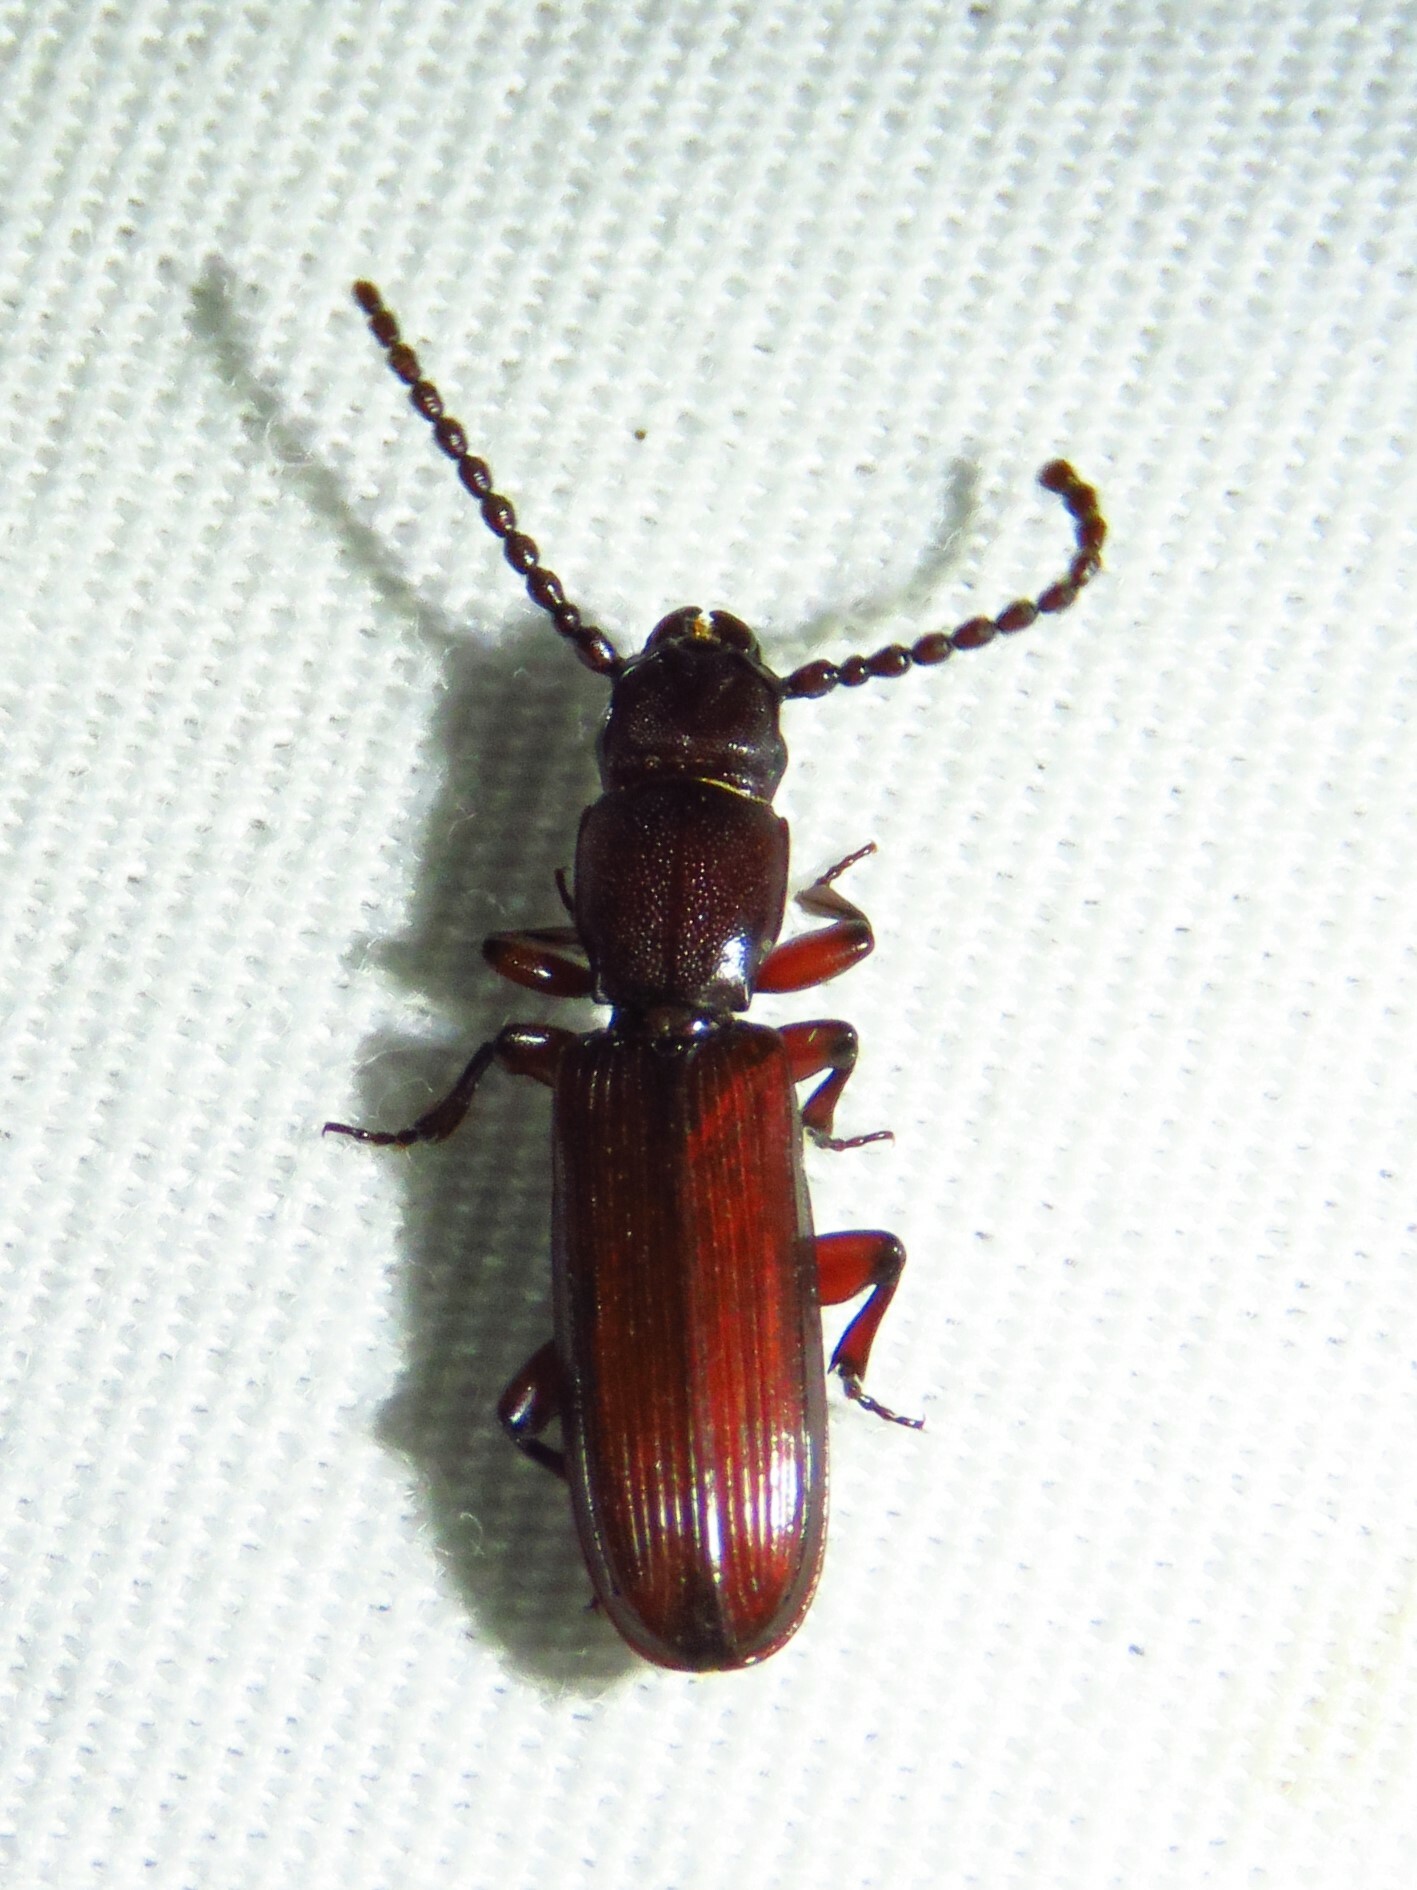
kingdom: Animalia
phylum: Arthropoda
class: Insecta
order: Coleoptera
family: Passandridae
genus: Catogenus
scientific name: Catogenus rufus
